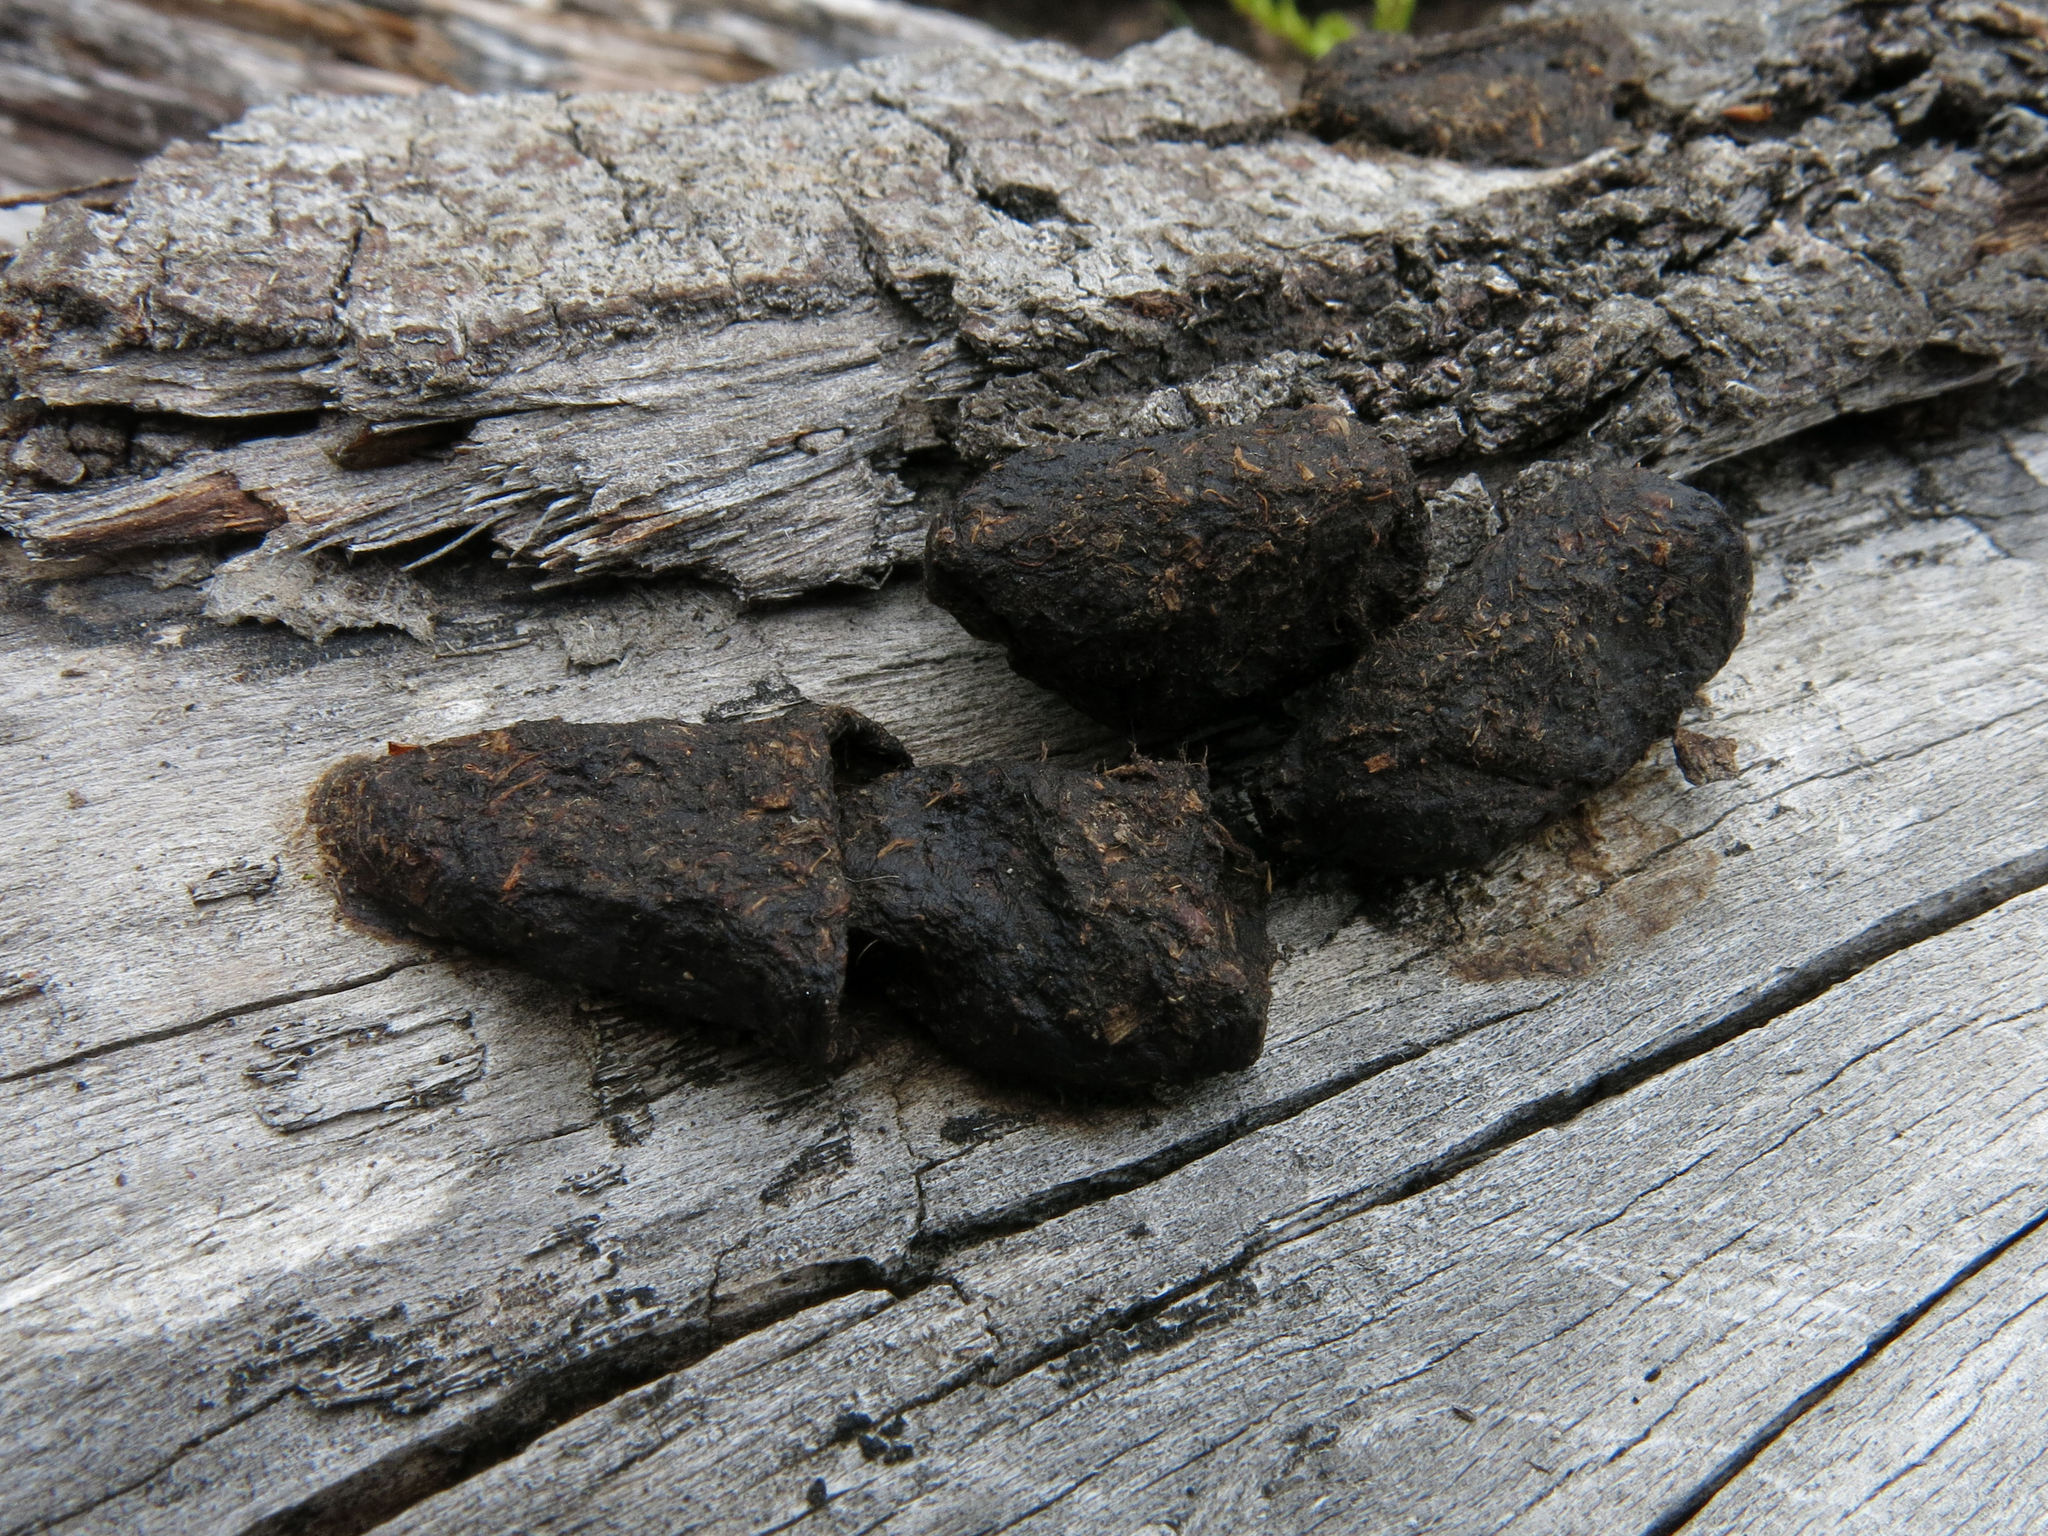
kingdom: Animalia
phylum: Chordata
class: Mammalia
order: Diprotodontia
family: Phalangeridae
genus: Trichosurus
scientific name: Trichosurus vulpecula
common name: Common brushtail
